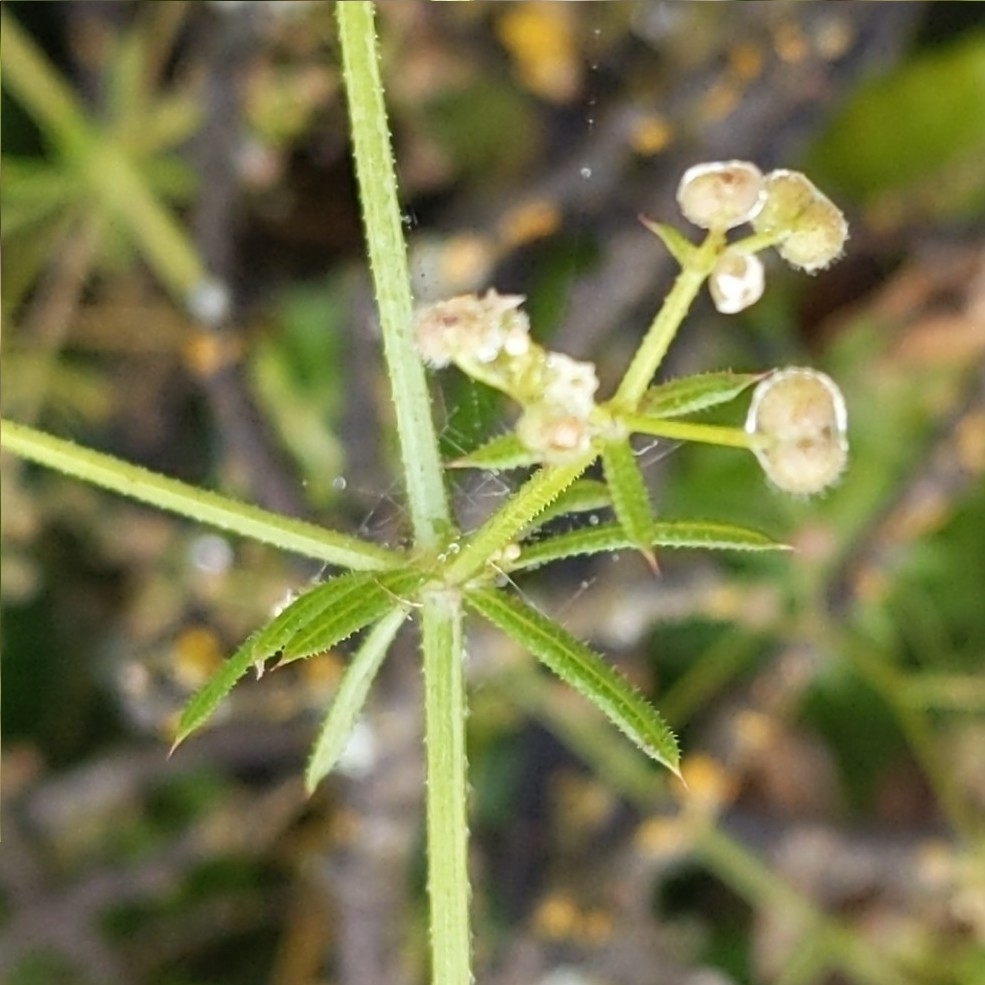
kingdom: Plantae
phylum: Tracheophyta
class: Magnoliopsida
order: Gentianales
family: Rubiaceae
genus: Galium
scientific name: Galium aparine
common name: Cleavers
